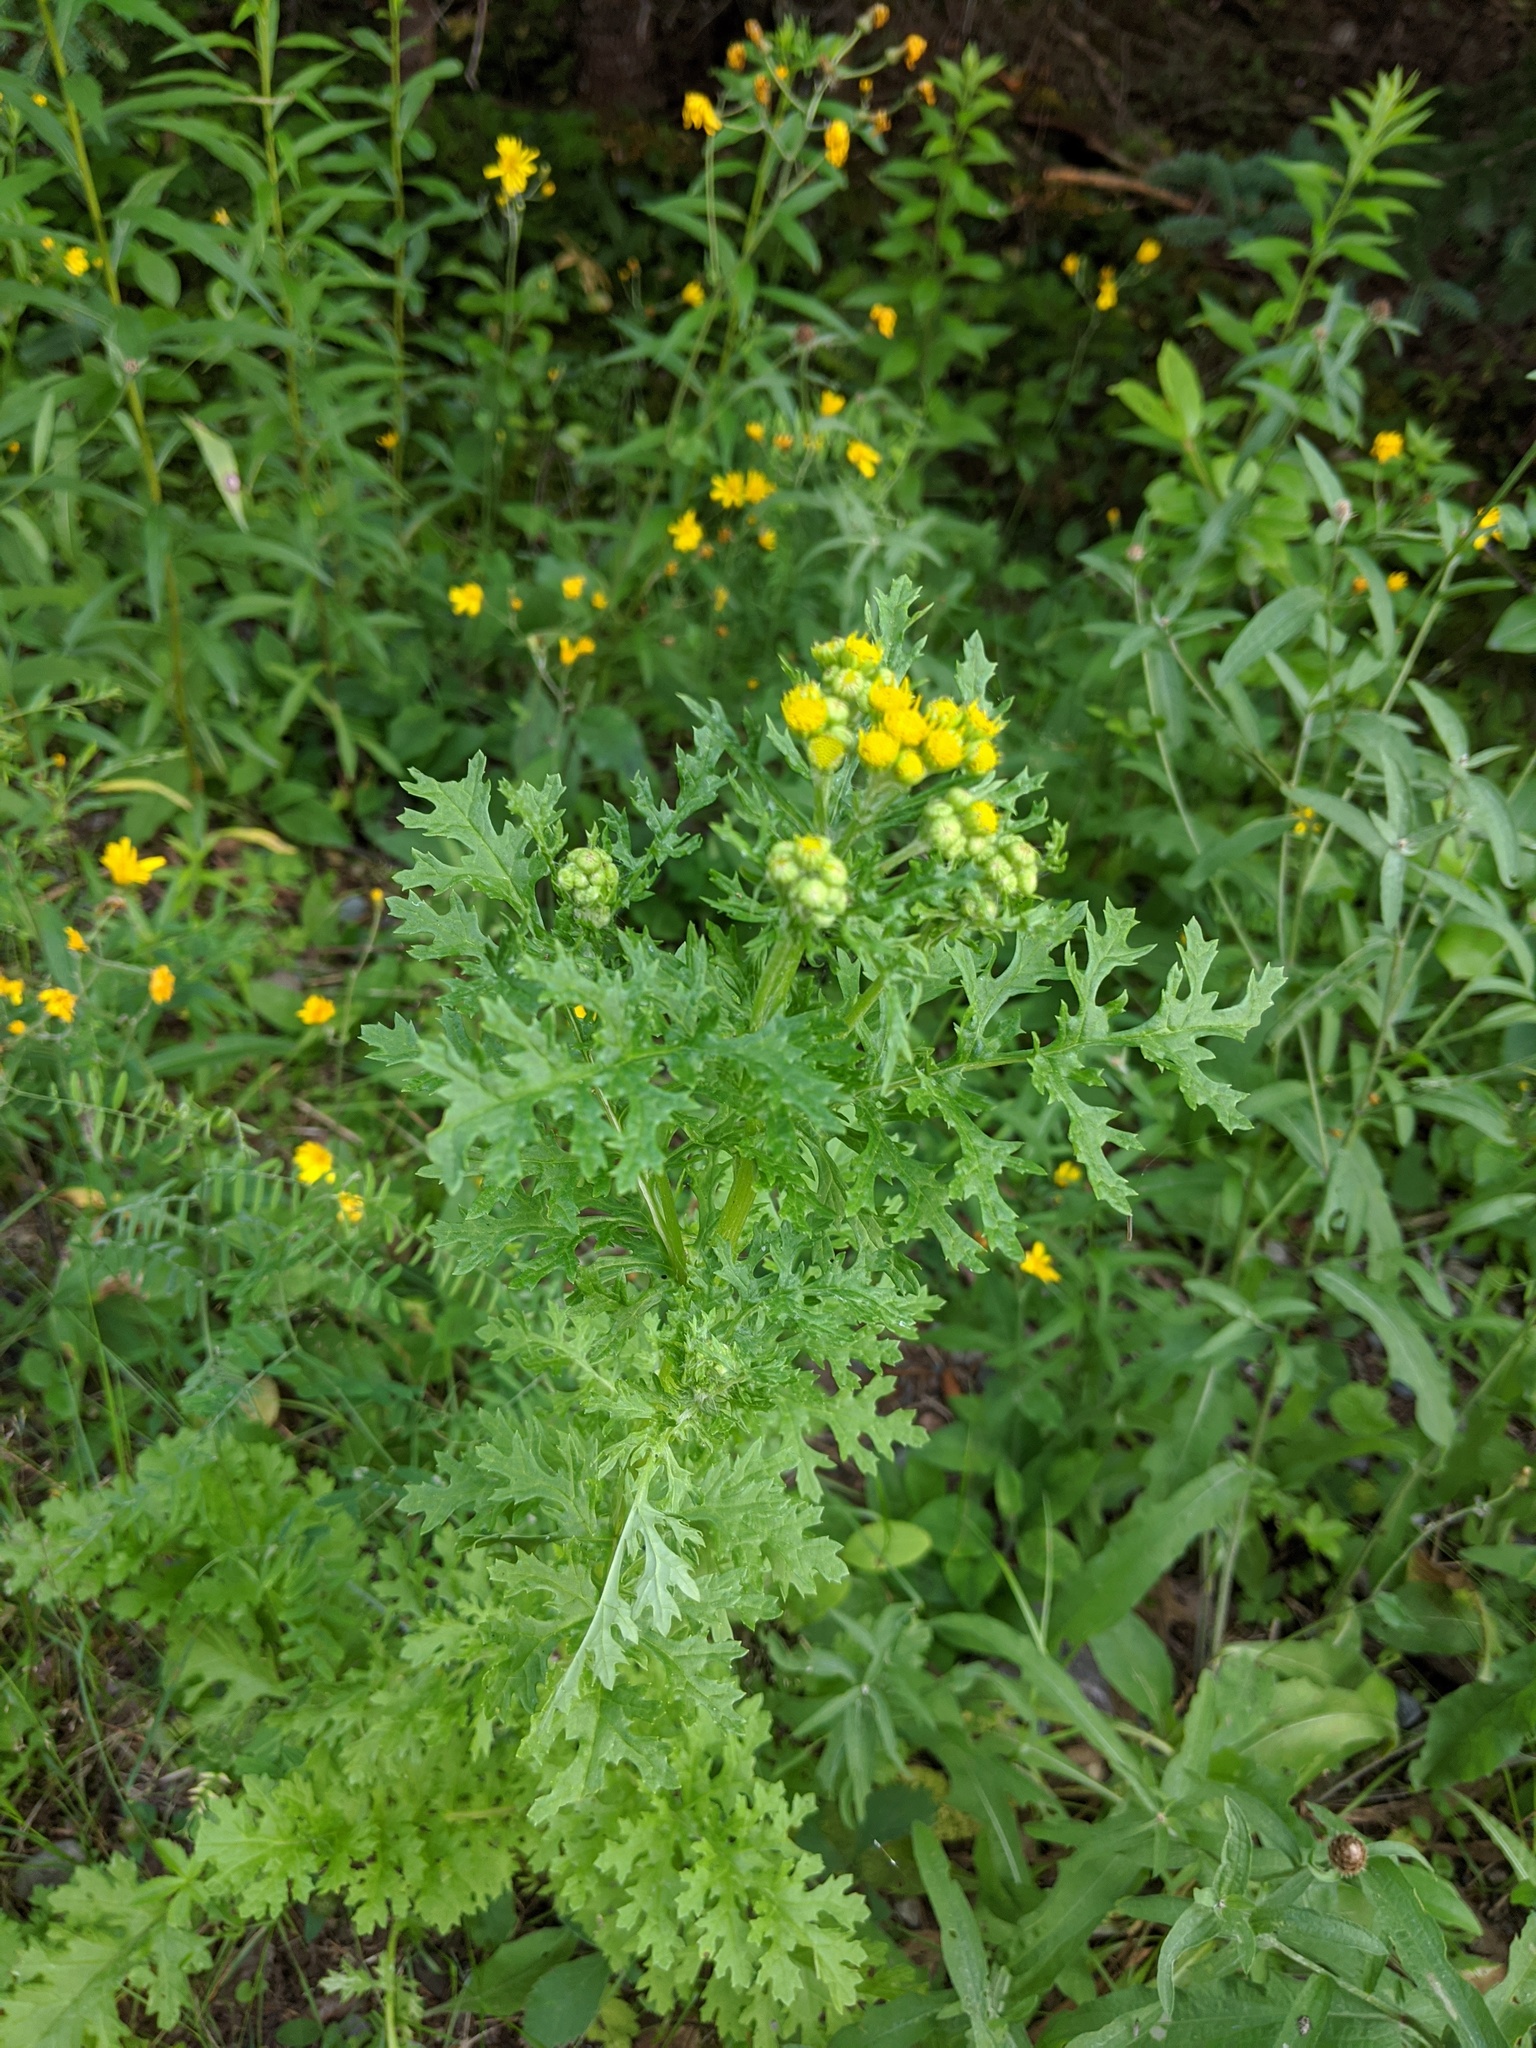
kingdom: Plantae
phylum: Tracheophyta
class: Magnoliopsida
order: Asterales
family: Asteraceae
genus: Jacobaea
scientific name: Jacobaea vulgaris
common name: Stinking willie
